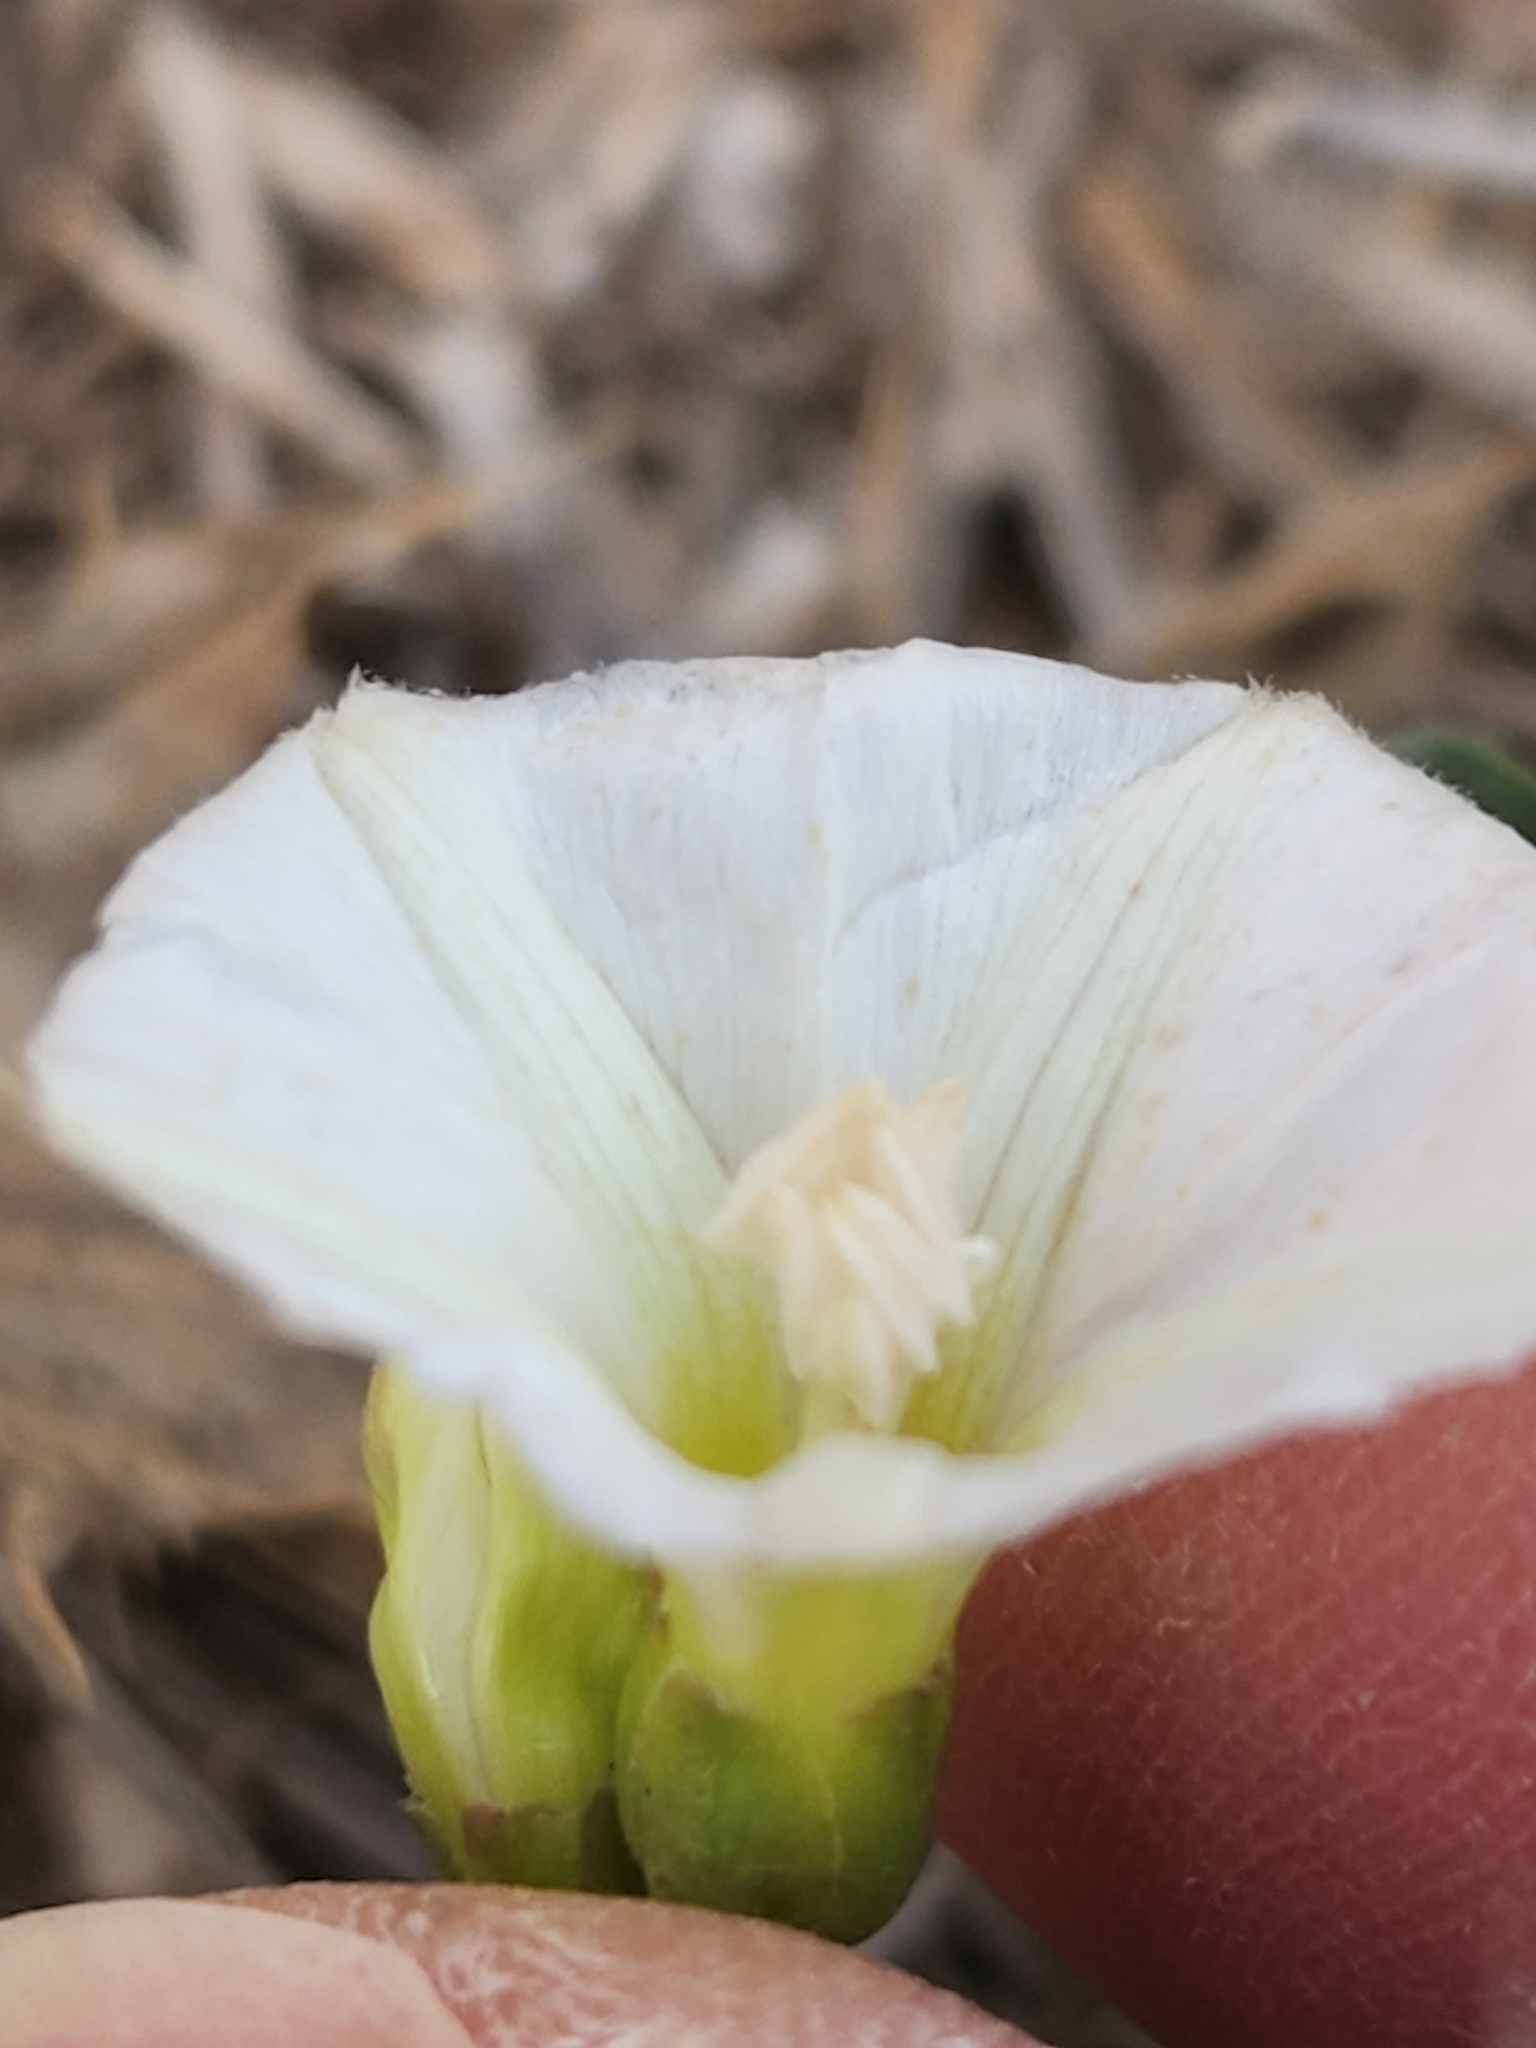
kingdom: Plantae
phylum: Tracheophyta
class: Magnoliopsida
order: Solanales
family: Convolvulaceae
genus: Convolvulus
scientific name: Convolvulus arvensis
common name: Field bindweed
